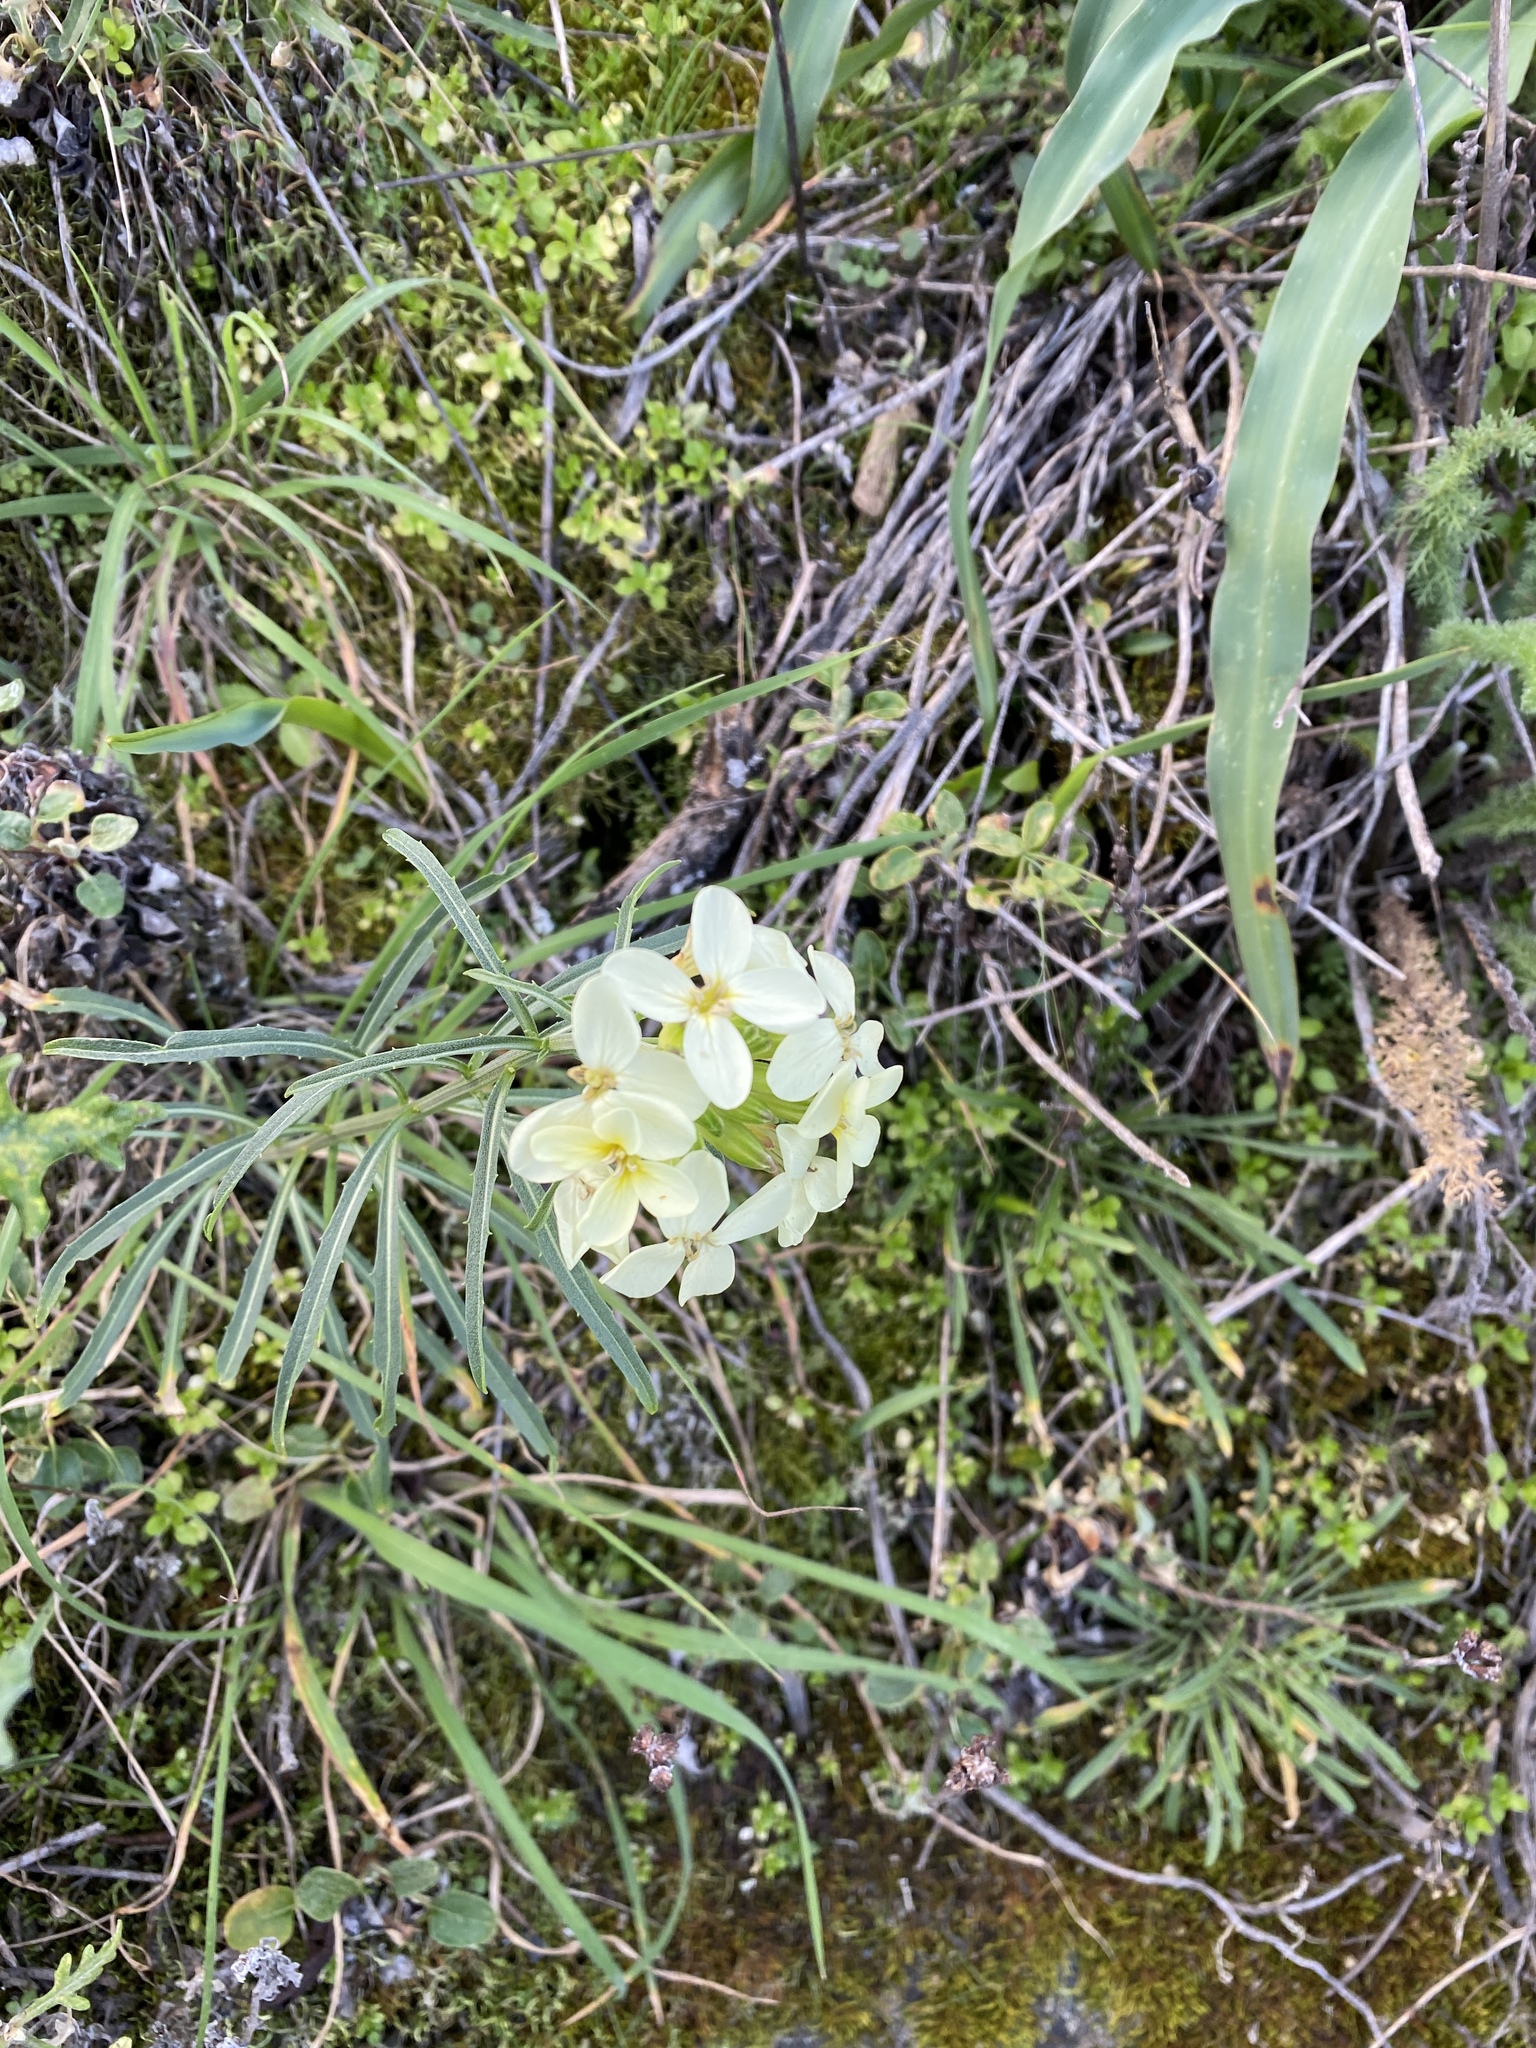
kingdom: Plantae
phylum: Tracheophyta
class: Magnoliopsida
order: Brassicales
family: Brassicaceae
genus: Erysimum
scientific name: Erysimum franciscanum
